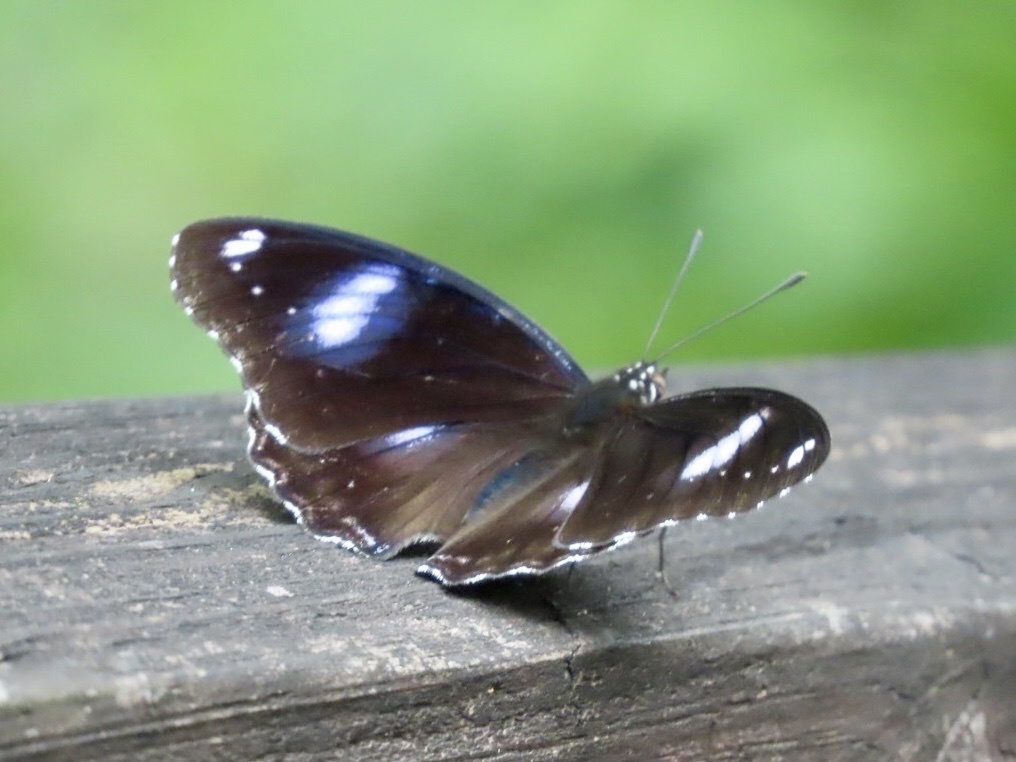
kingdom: Animalia
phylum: Arthropoda
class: Insecta
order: Lepidoptera
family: Nymphalidae
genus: Hypolimnas
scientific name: Hypolimnas bolina
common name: Great eggfly
